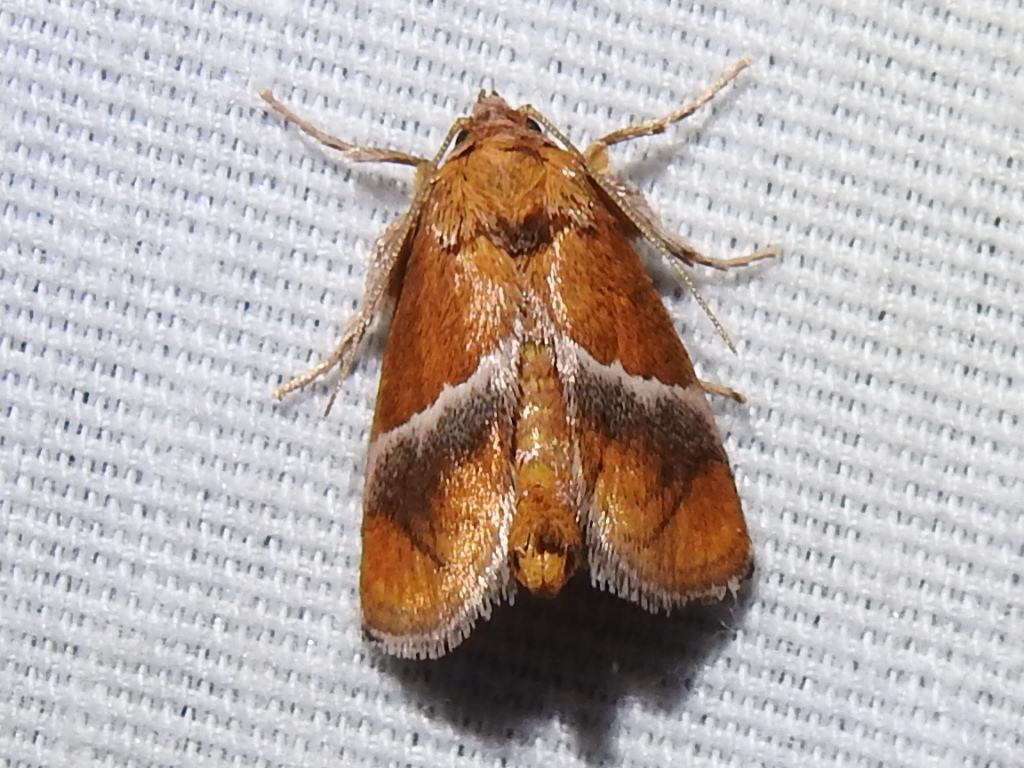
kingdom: Animalia
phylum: Arthropoda
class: Insecta
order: Lepidoptera
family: Limacodidae
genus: Lithacodes
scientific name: Lithacodes fasciola
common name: Yellow-shouldered slug moth
